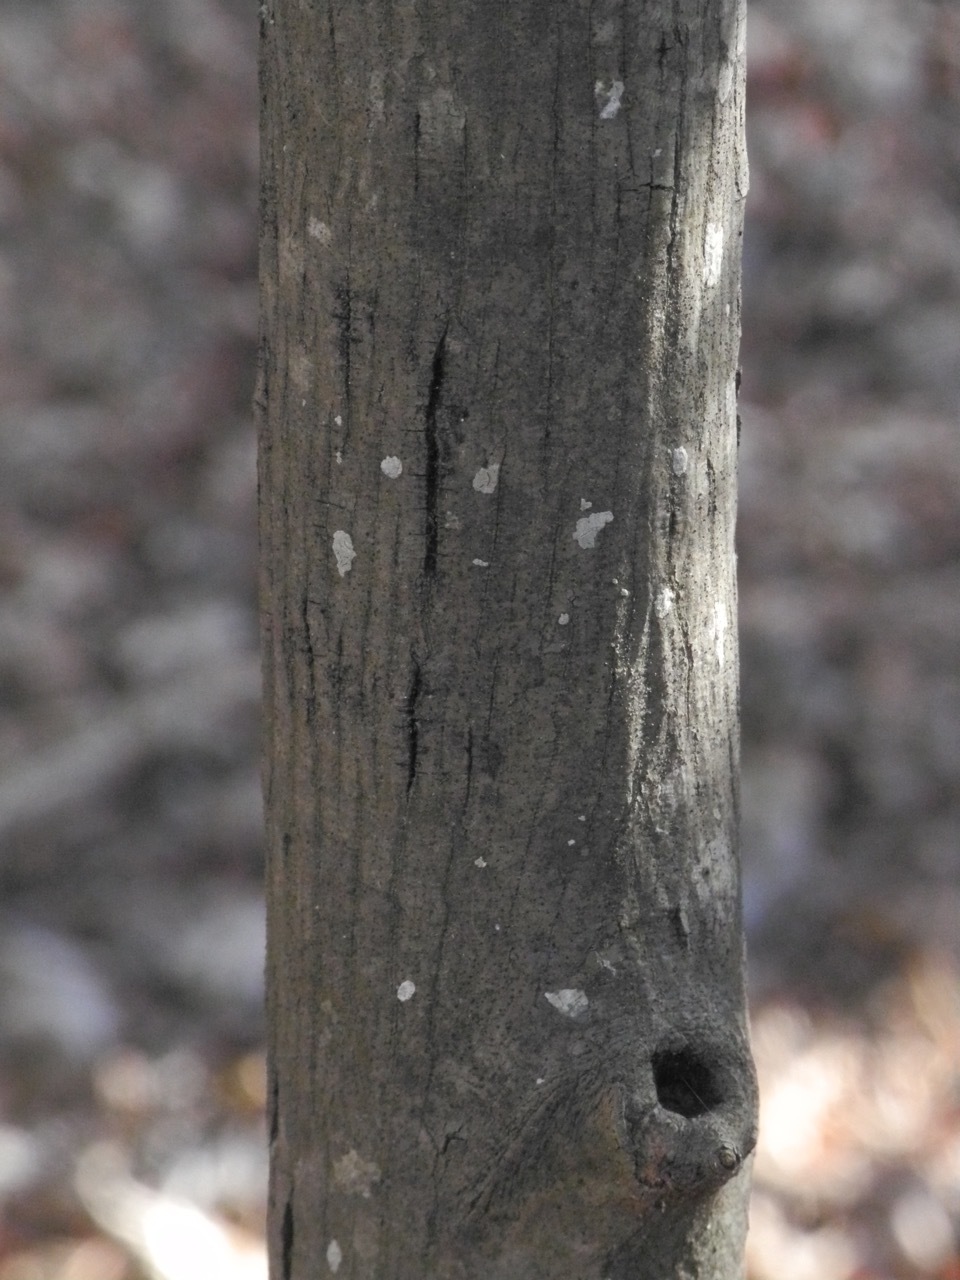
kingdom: Plantae
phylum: Tracheophyta
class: Magnoliopsida
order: Fagales
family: Juglandaceae
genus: Carya
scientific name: Carya alba
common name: Mockernut hickory
